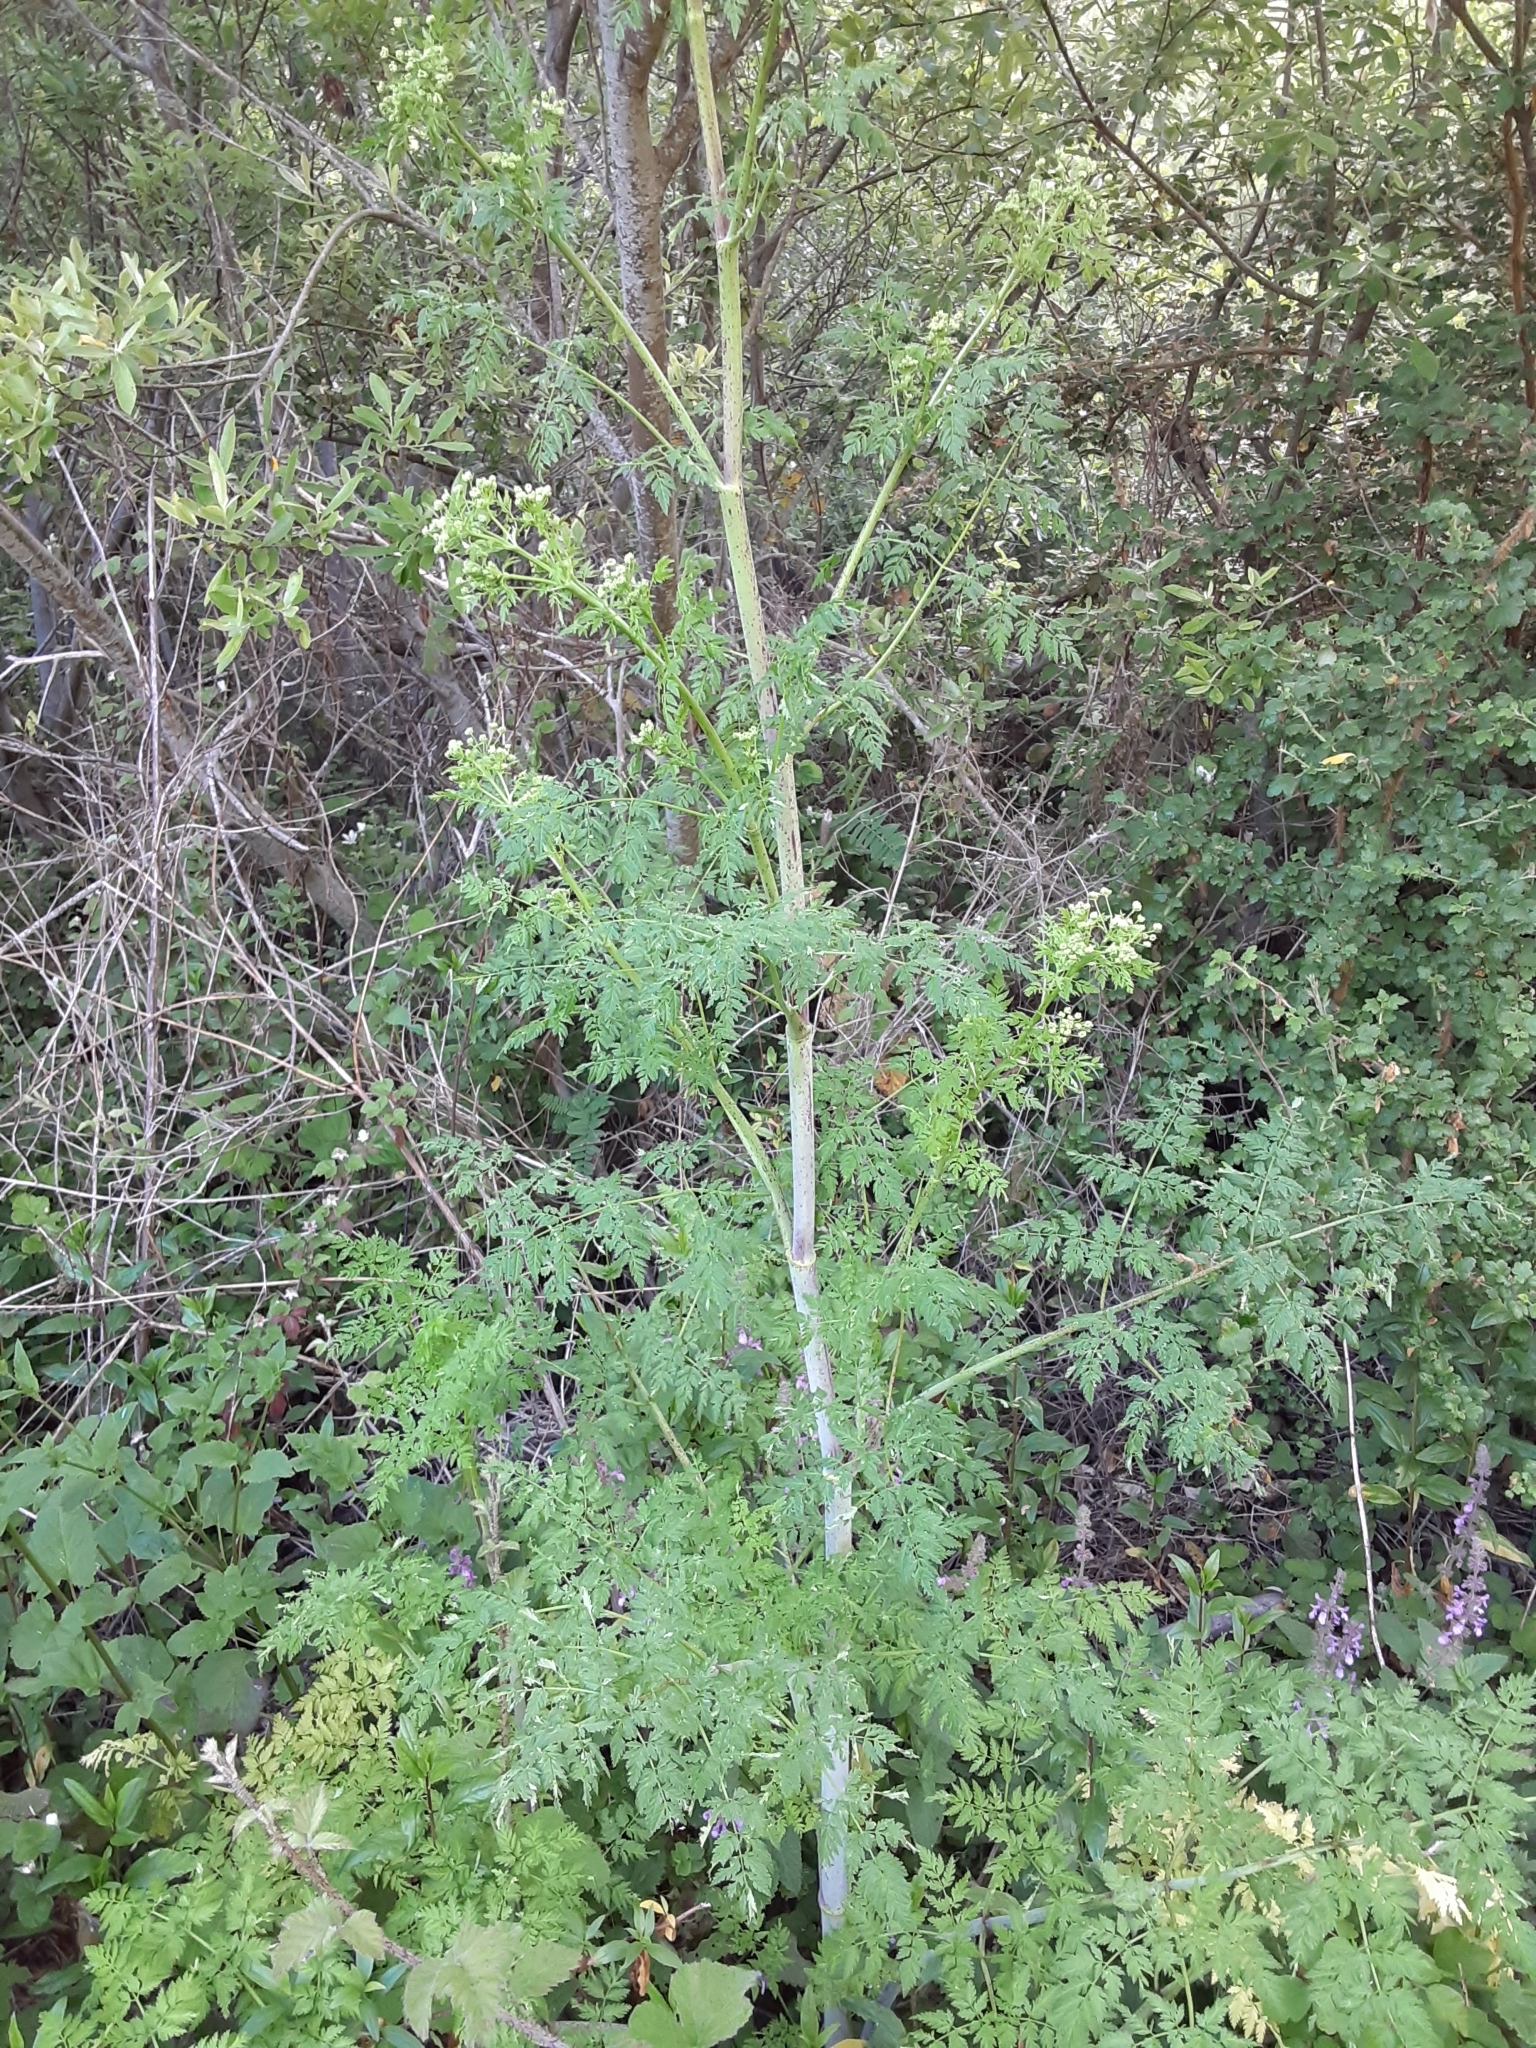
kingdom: Plantae
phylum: Tracheophyta
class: Magnoliopsida
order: Apiales
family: Apiaceae
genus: Conium
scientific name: Conium maculatum
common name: Hemlock
